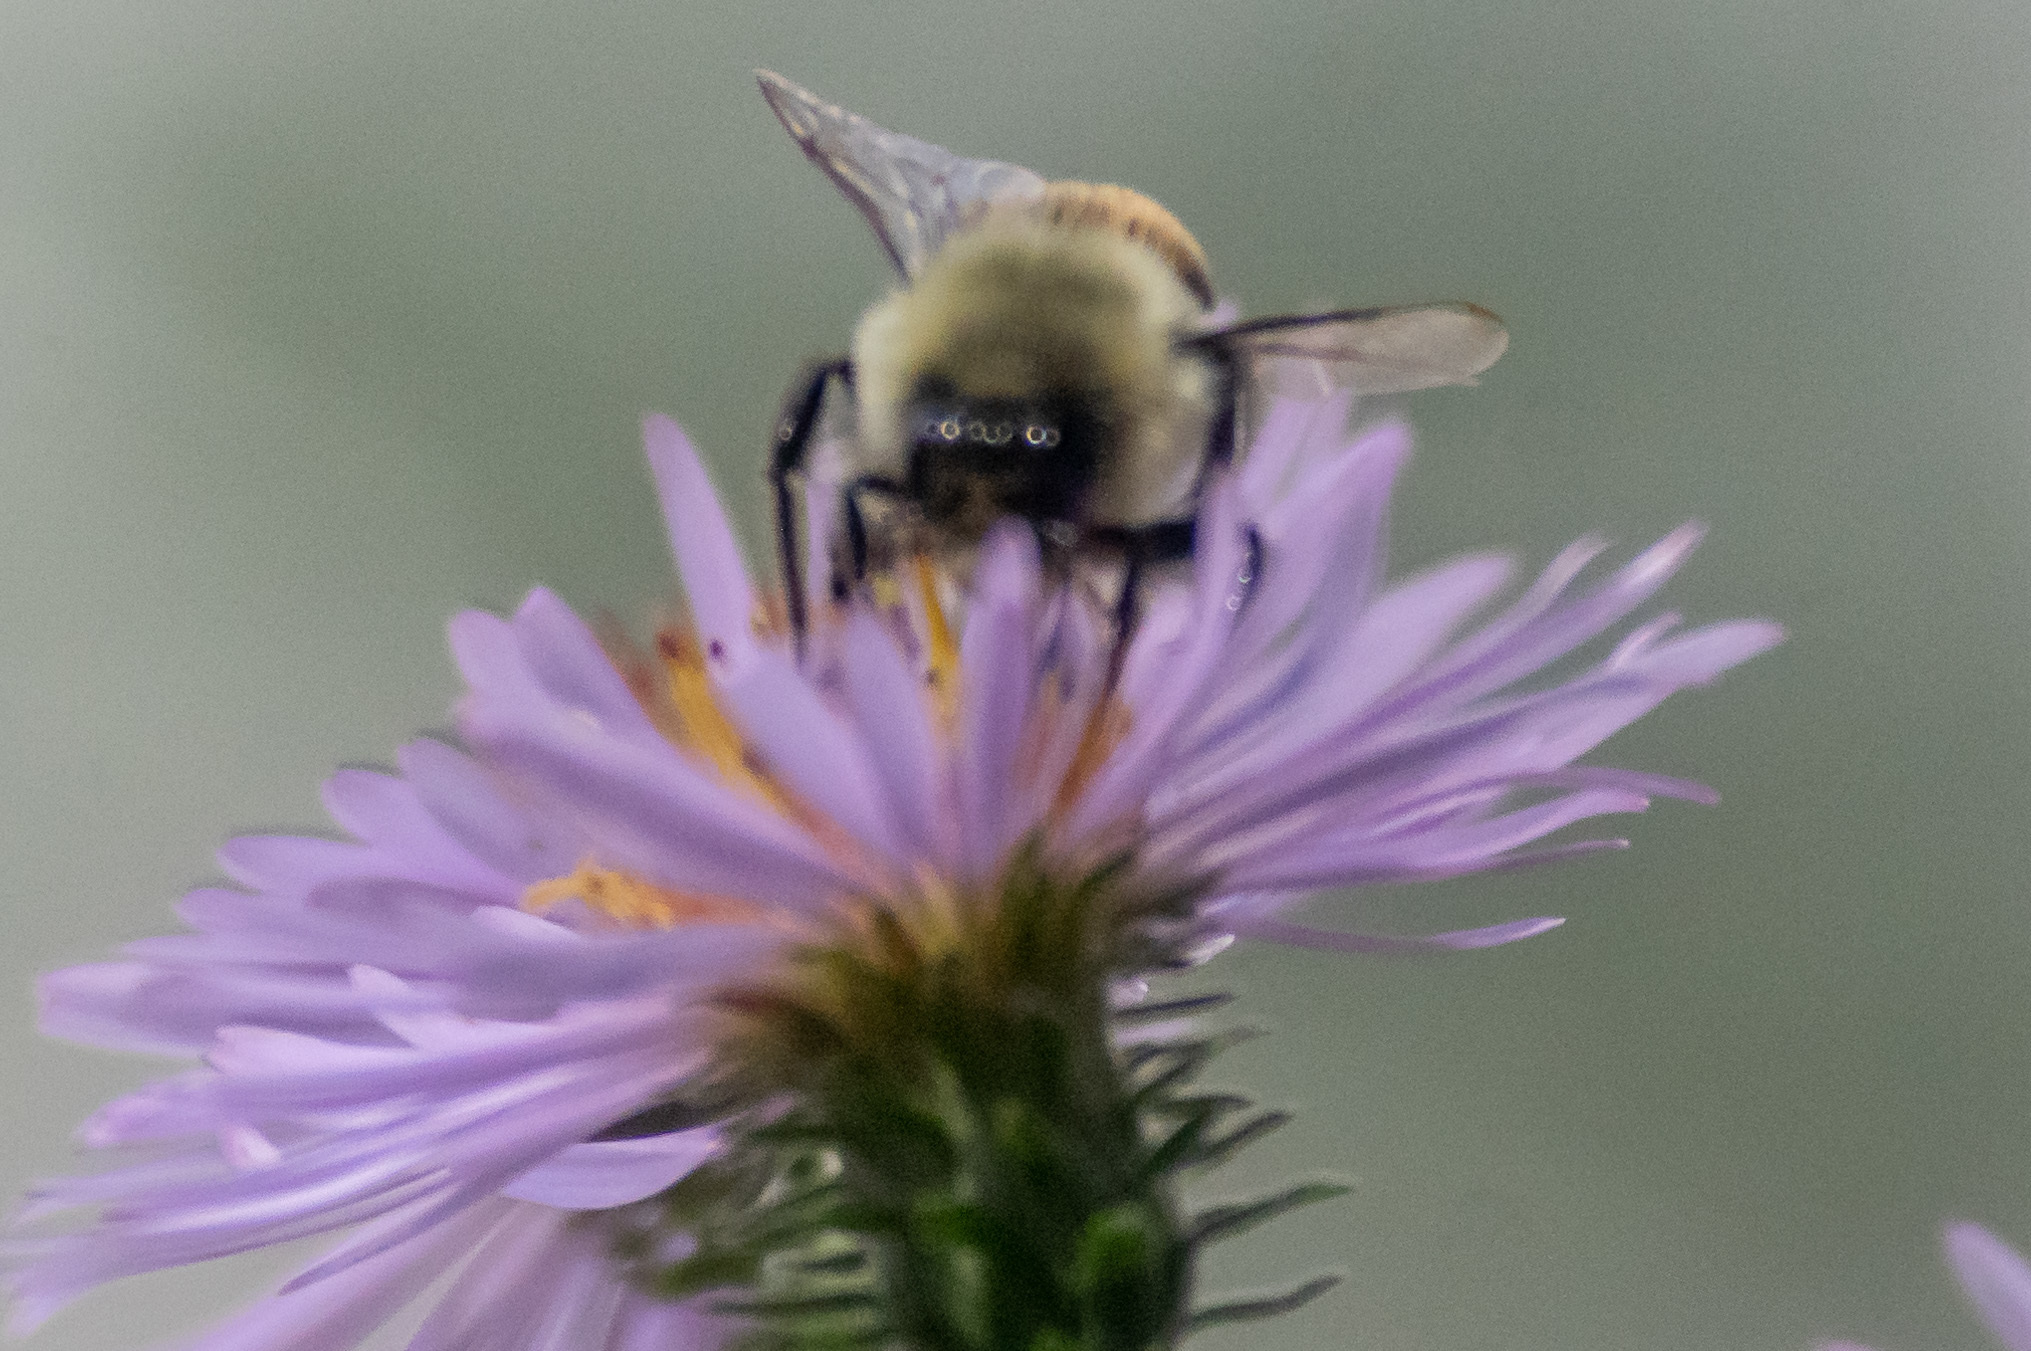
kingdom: Animalia
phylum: Arthropoda
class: Insecta
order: Hymenoptera
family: Apidae
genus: Bombus
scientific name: Bombus impatiens
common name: Common eastern bumble bee
